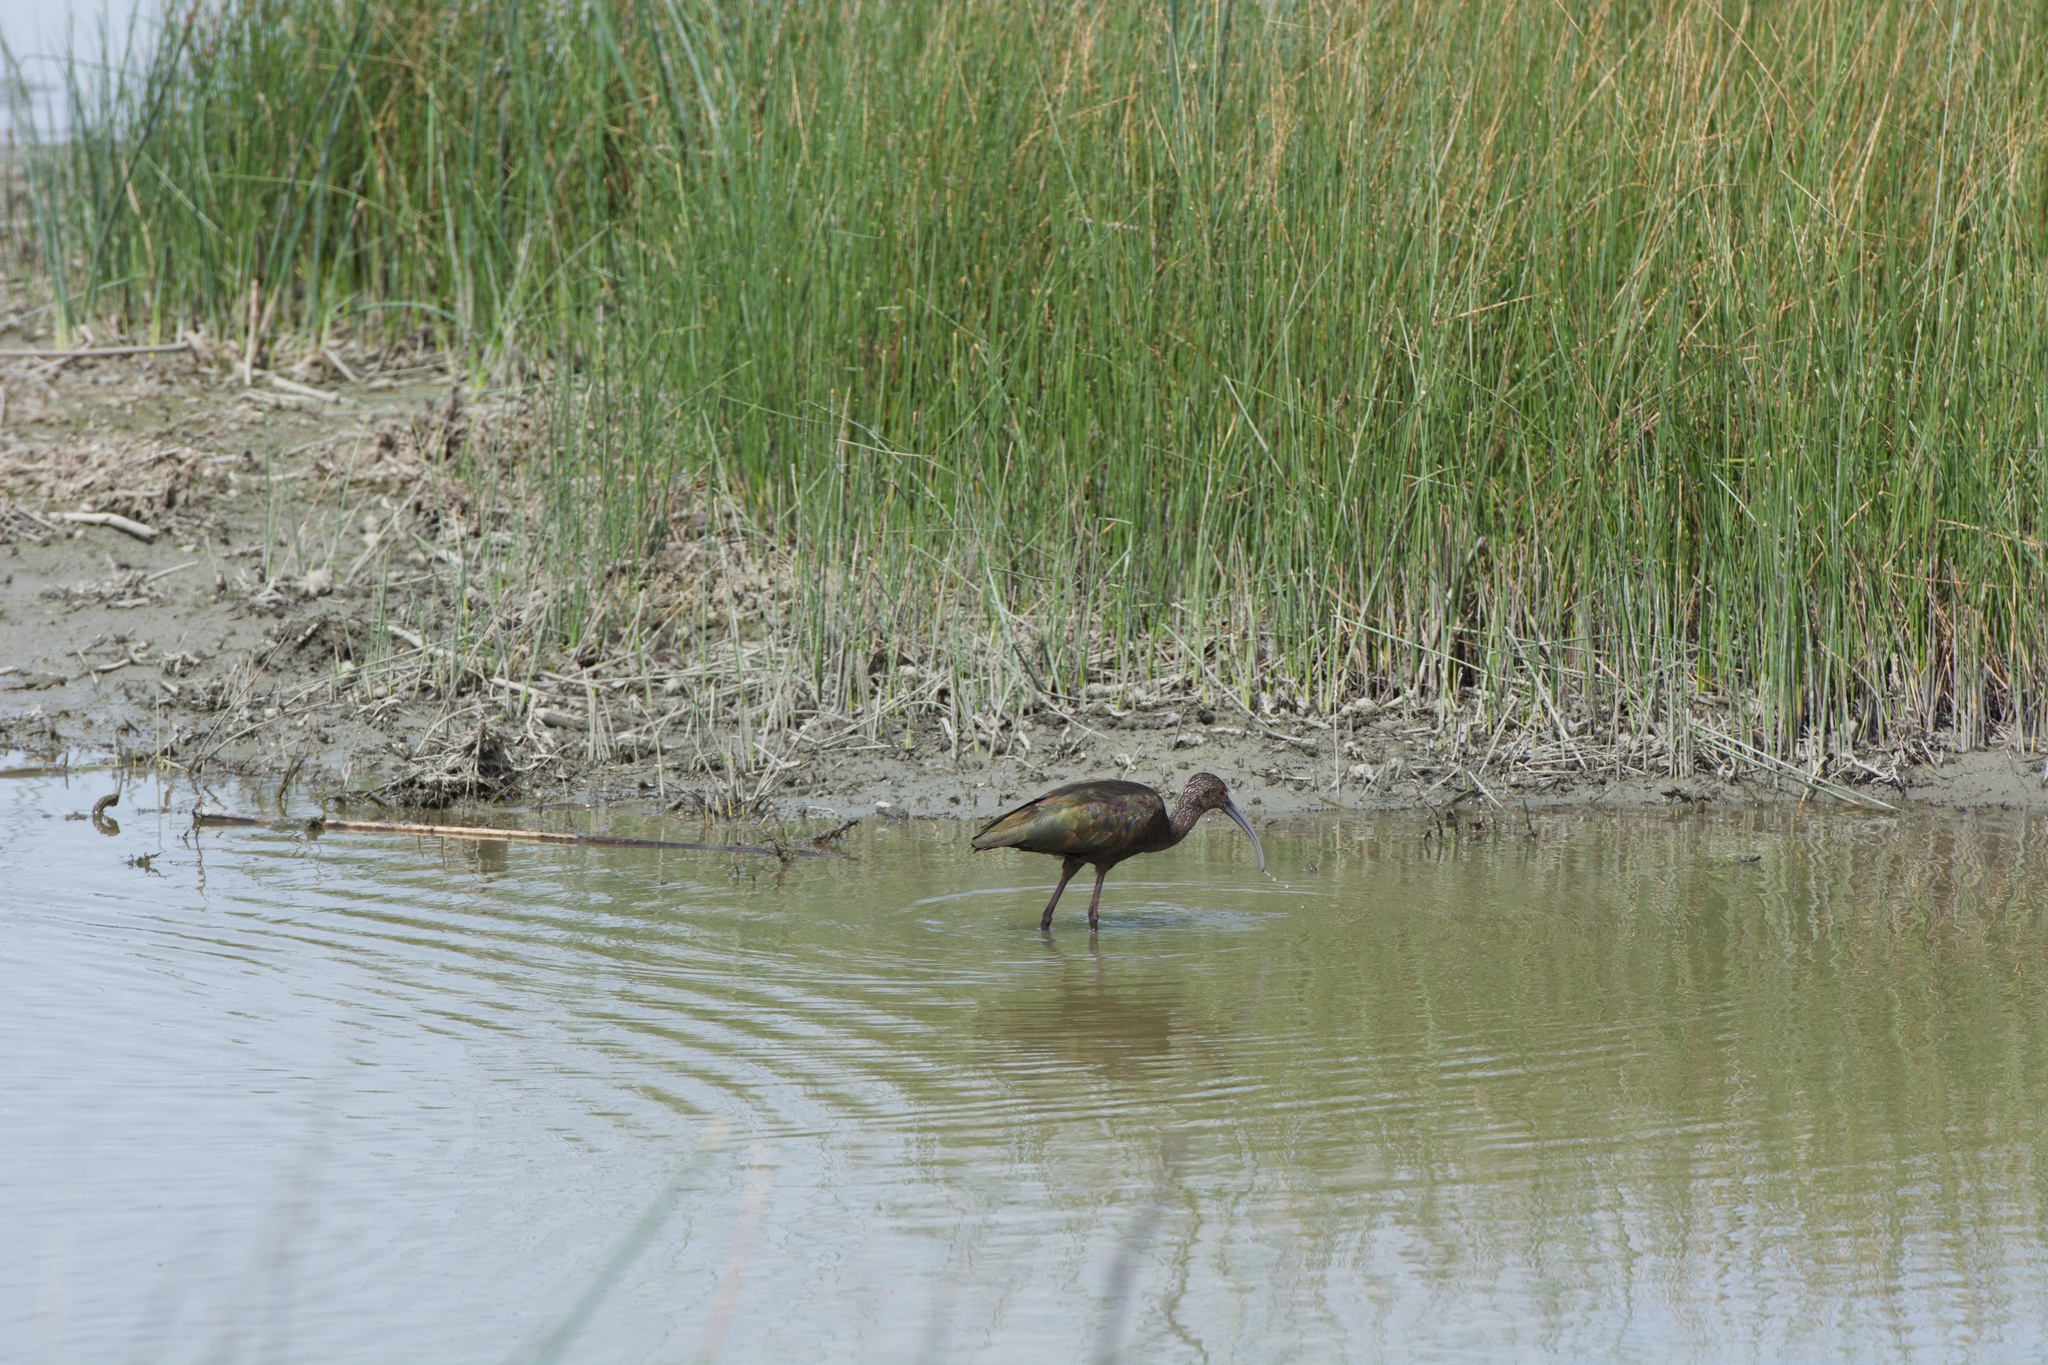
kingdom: Animalia
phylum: Chordata
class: Aves
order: Pelecaniformes
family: Threskiornithidae
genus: Plegadis
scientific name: Plegadis chihi
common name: White-faced ibis
